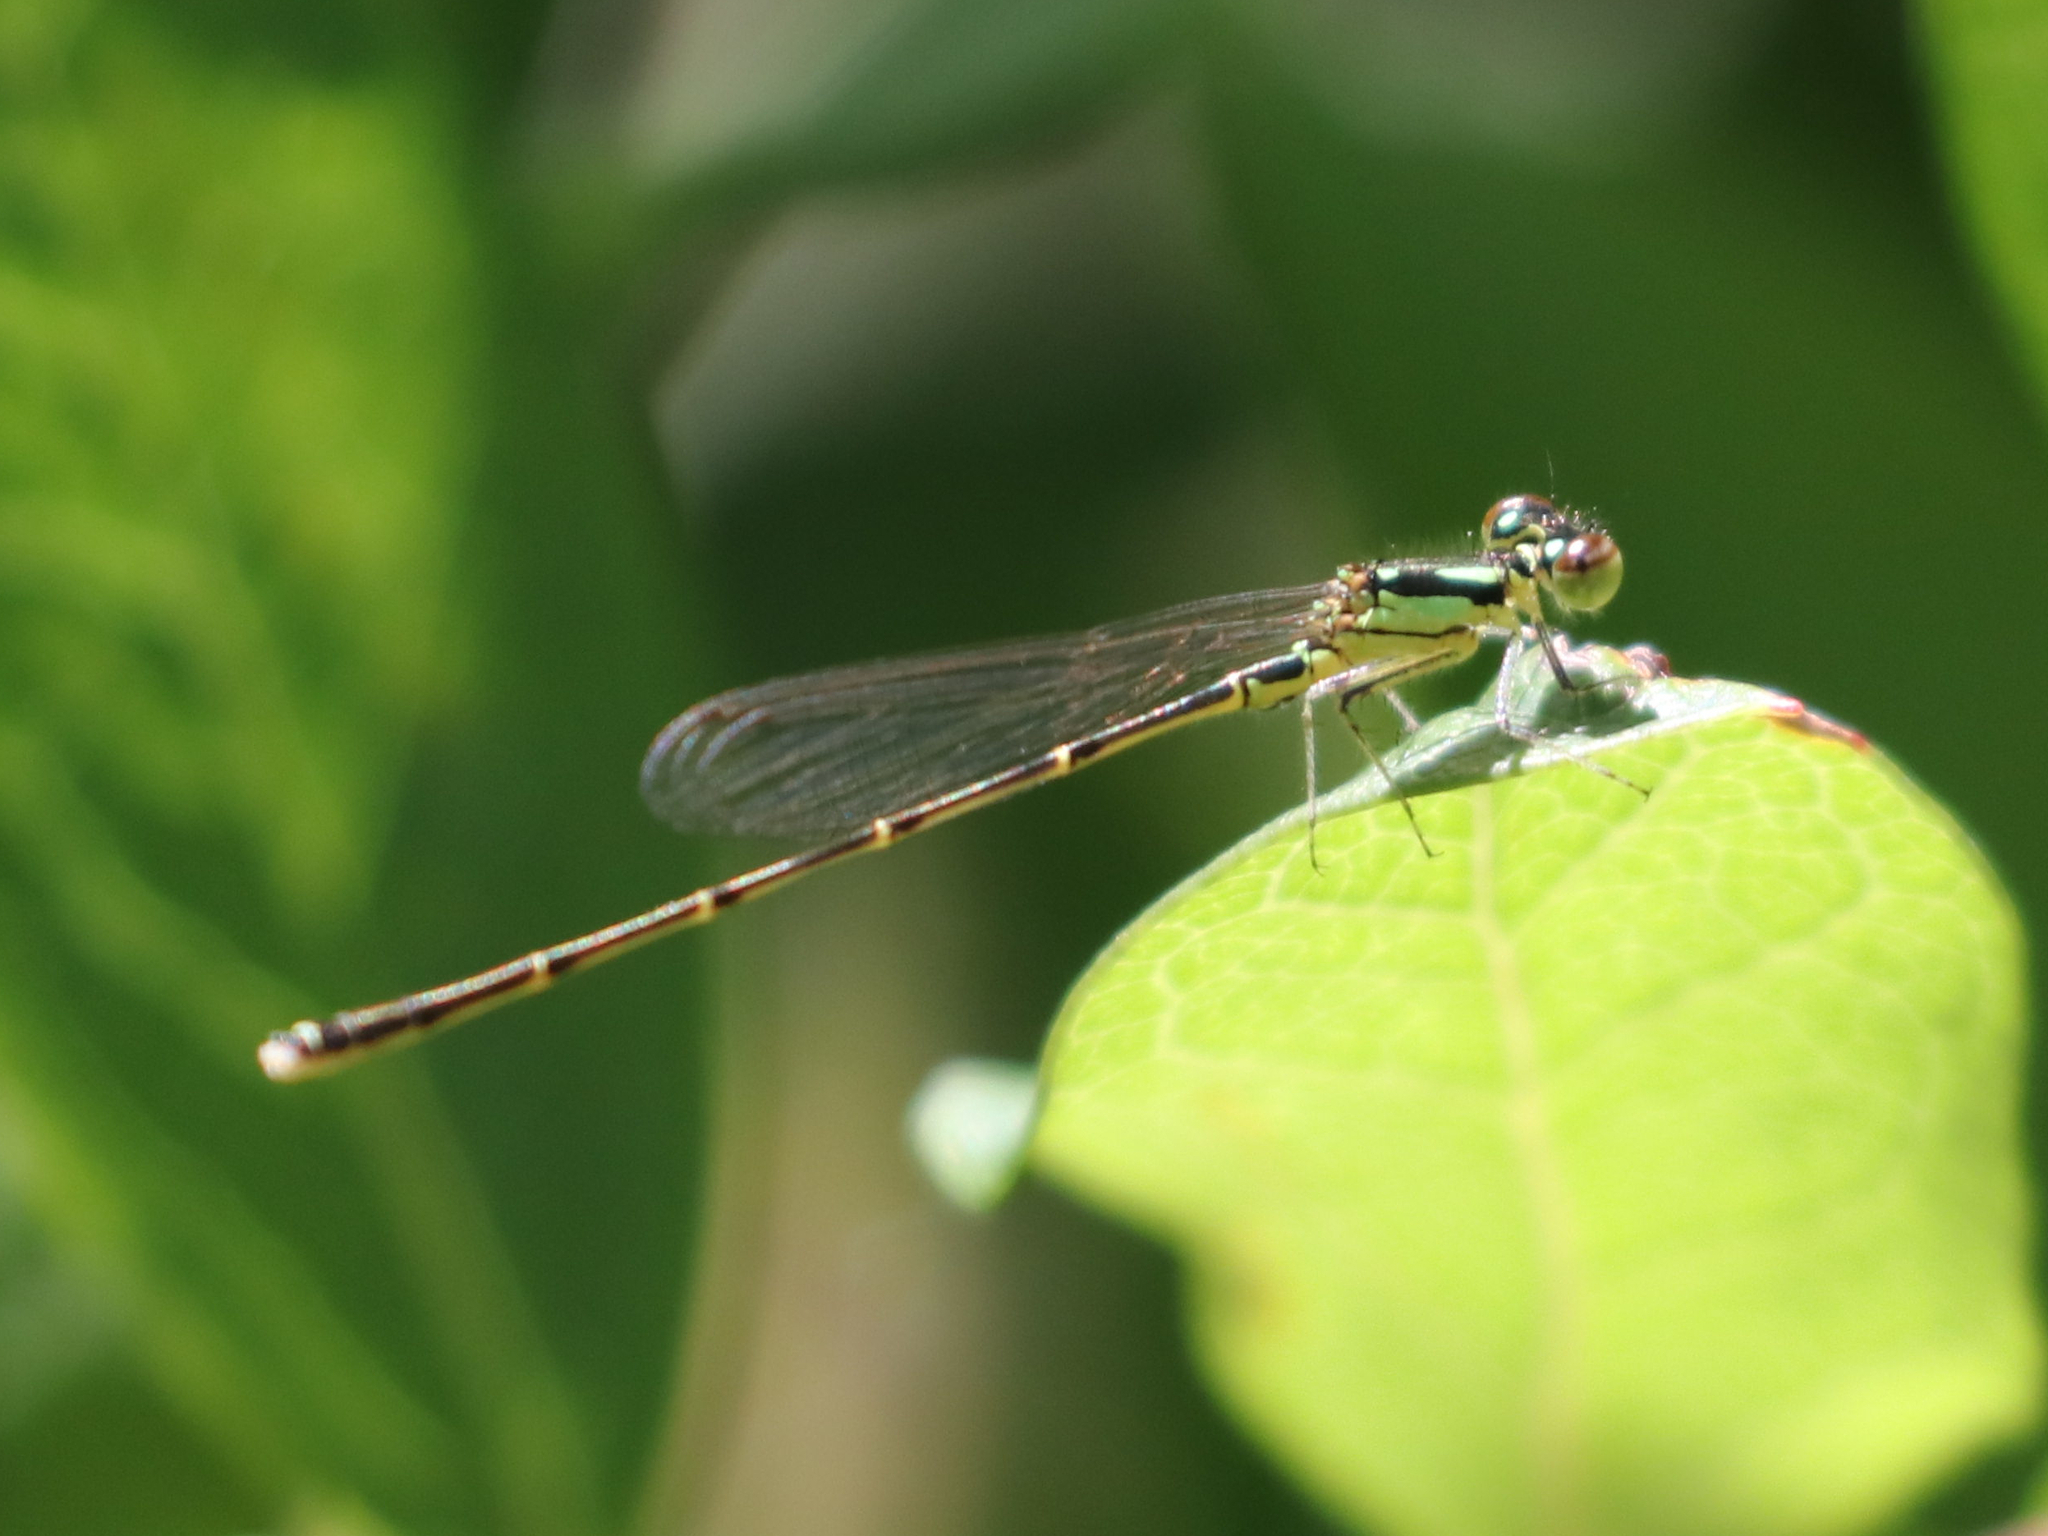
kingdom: Animalia
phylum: Arthropoda
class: Insecta
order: Odonata
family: Coenagrionidae
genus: Ischnura
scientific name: Ischnura posita
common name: Fragile forktail
